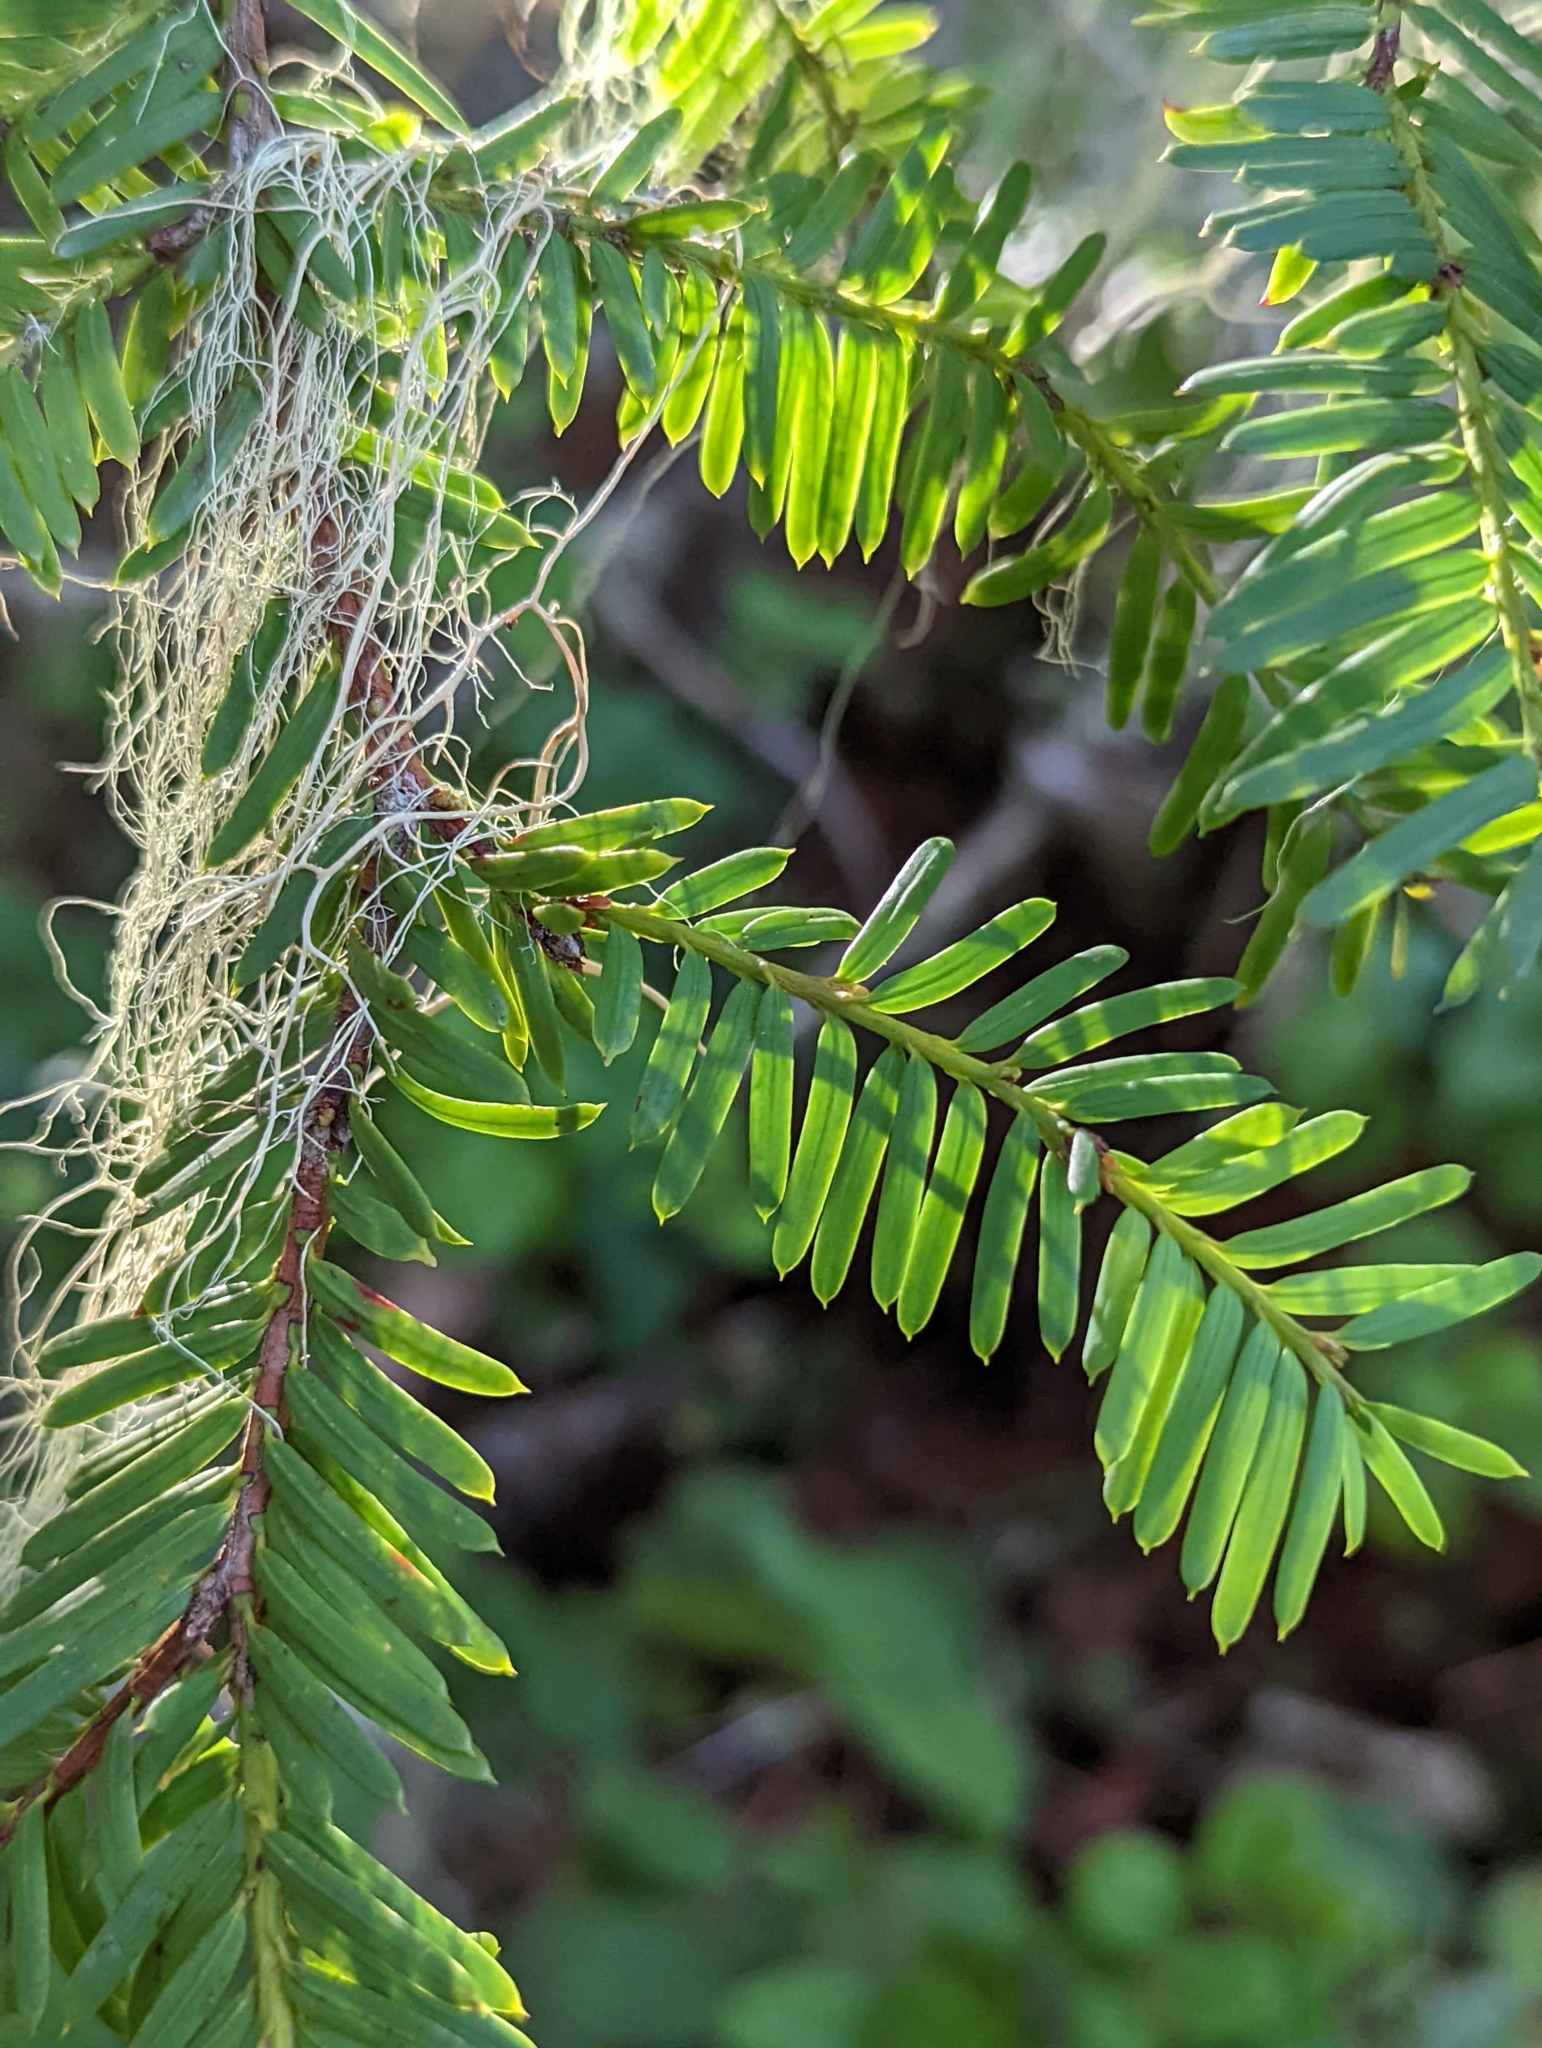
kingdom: Plantae
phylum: Tracheophyta
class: Pinopsida
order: Pinales
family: Taxaceae
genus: Taxus
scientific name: Taxus brevifolia
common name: Pacific yew
